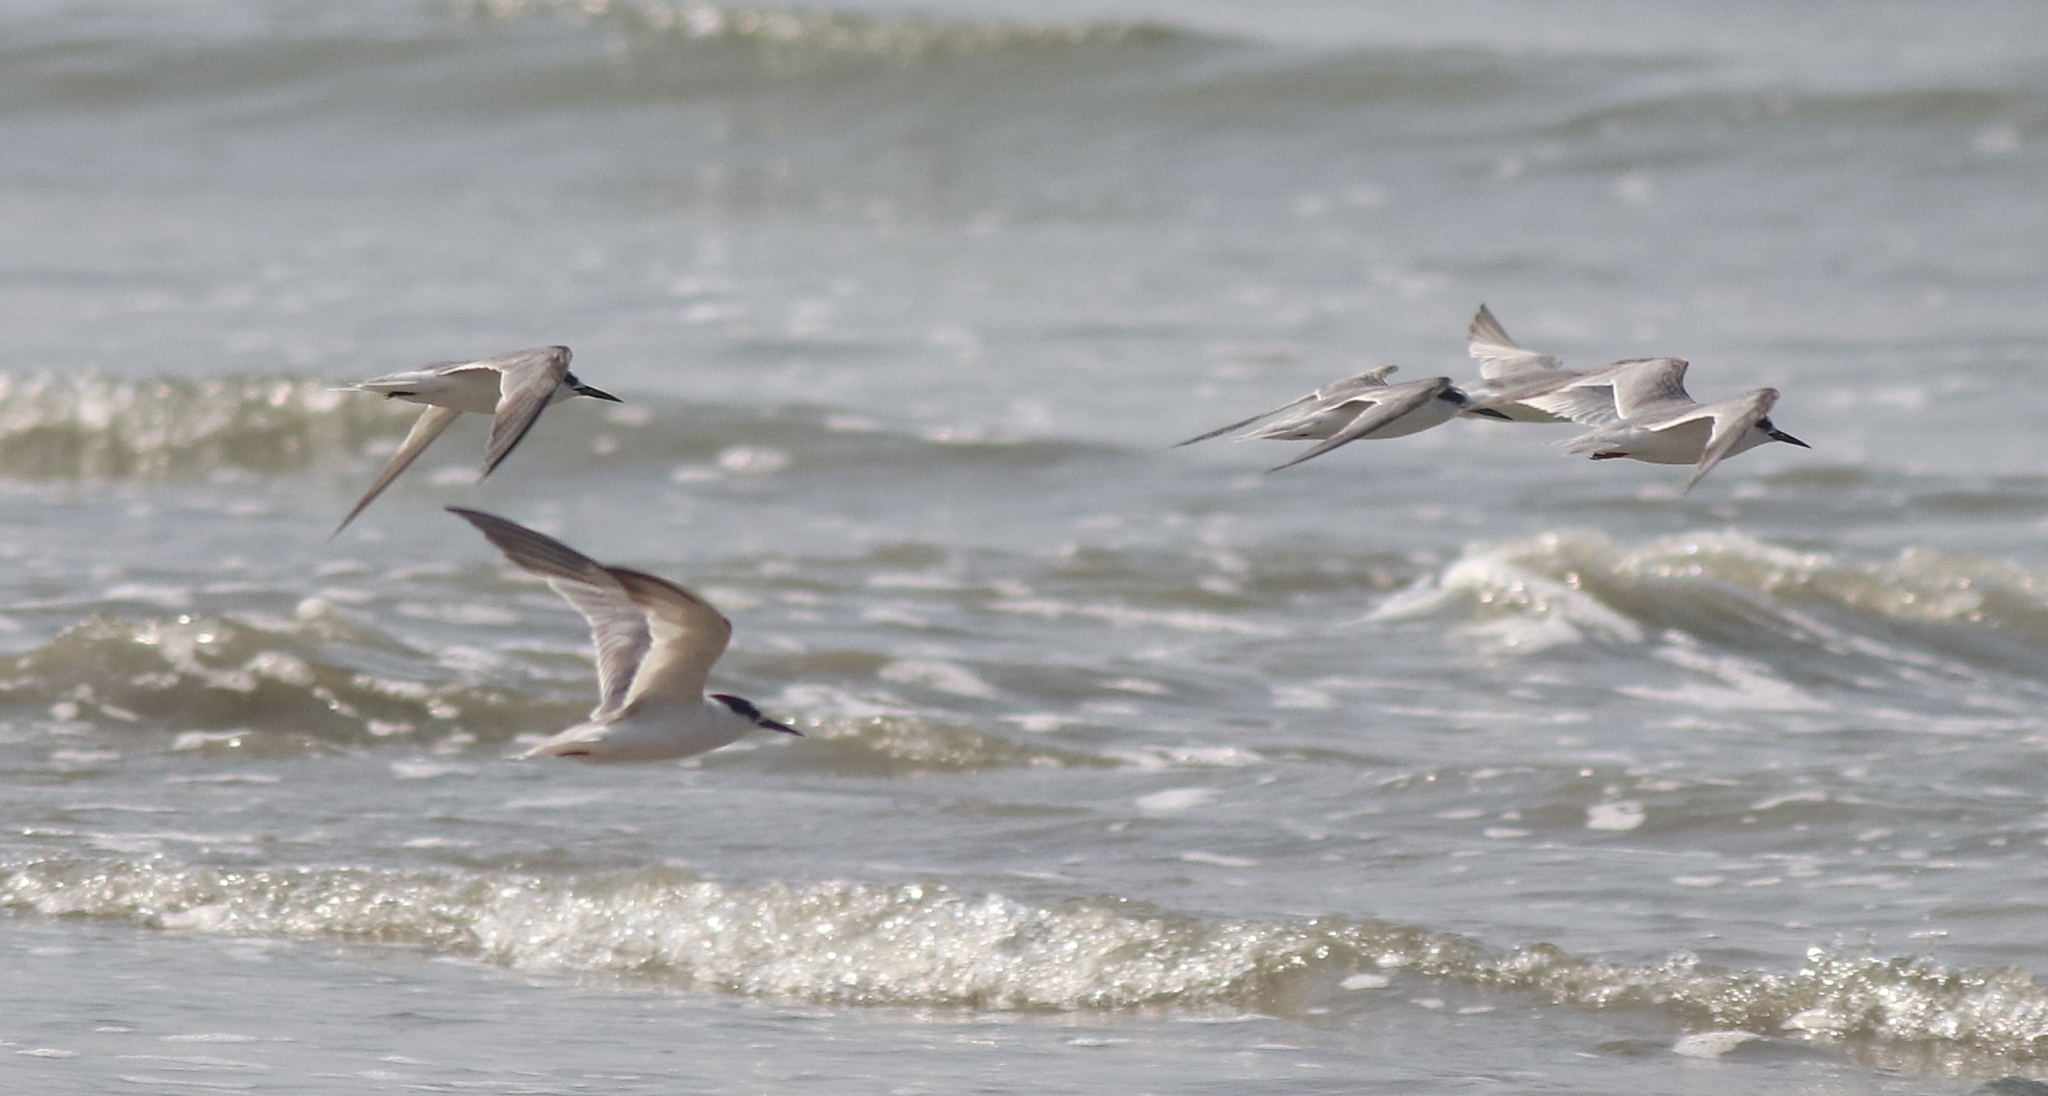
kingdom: Animalia
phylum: Chordata
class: Aves
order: Charadriiformes
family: Laridae
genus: Sternula
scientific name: Sternula albifrons
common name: Little tern
